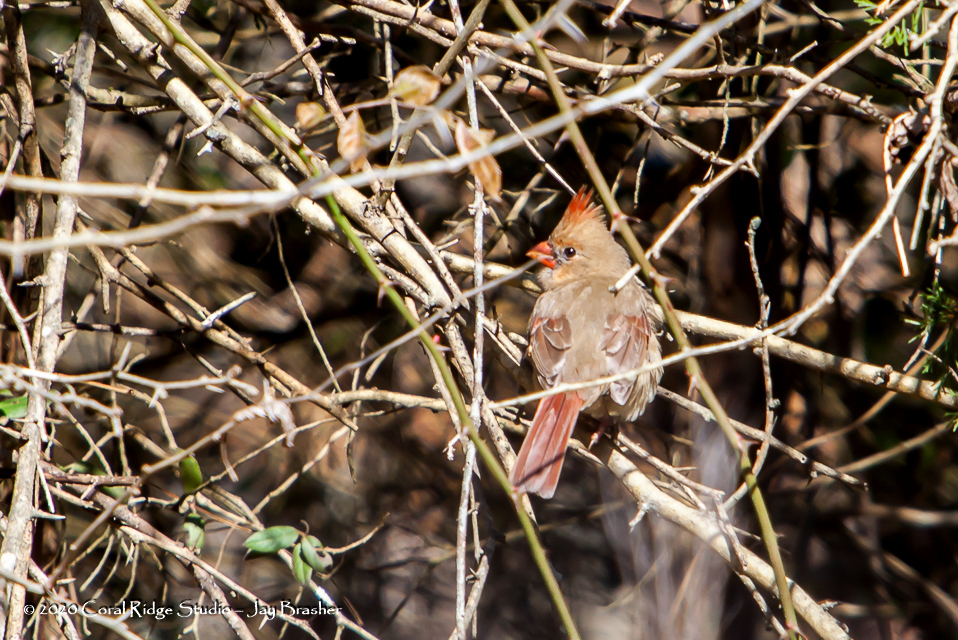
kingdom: Animalia
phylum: Chordata
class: Aves
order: Passeriformes
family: Cardinalidae
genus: Cardinalis
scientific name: Cardinalis cardinalis
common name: Northern cardinal
